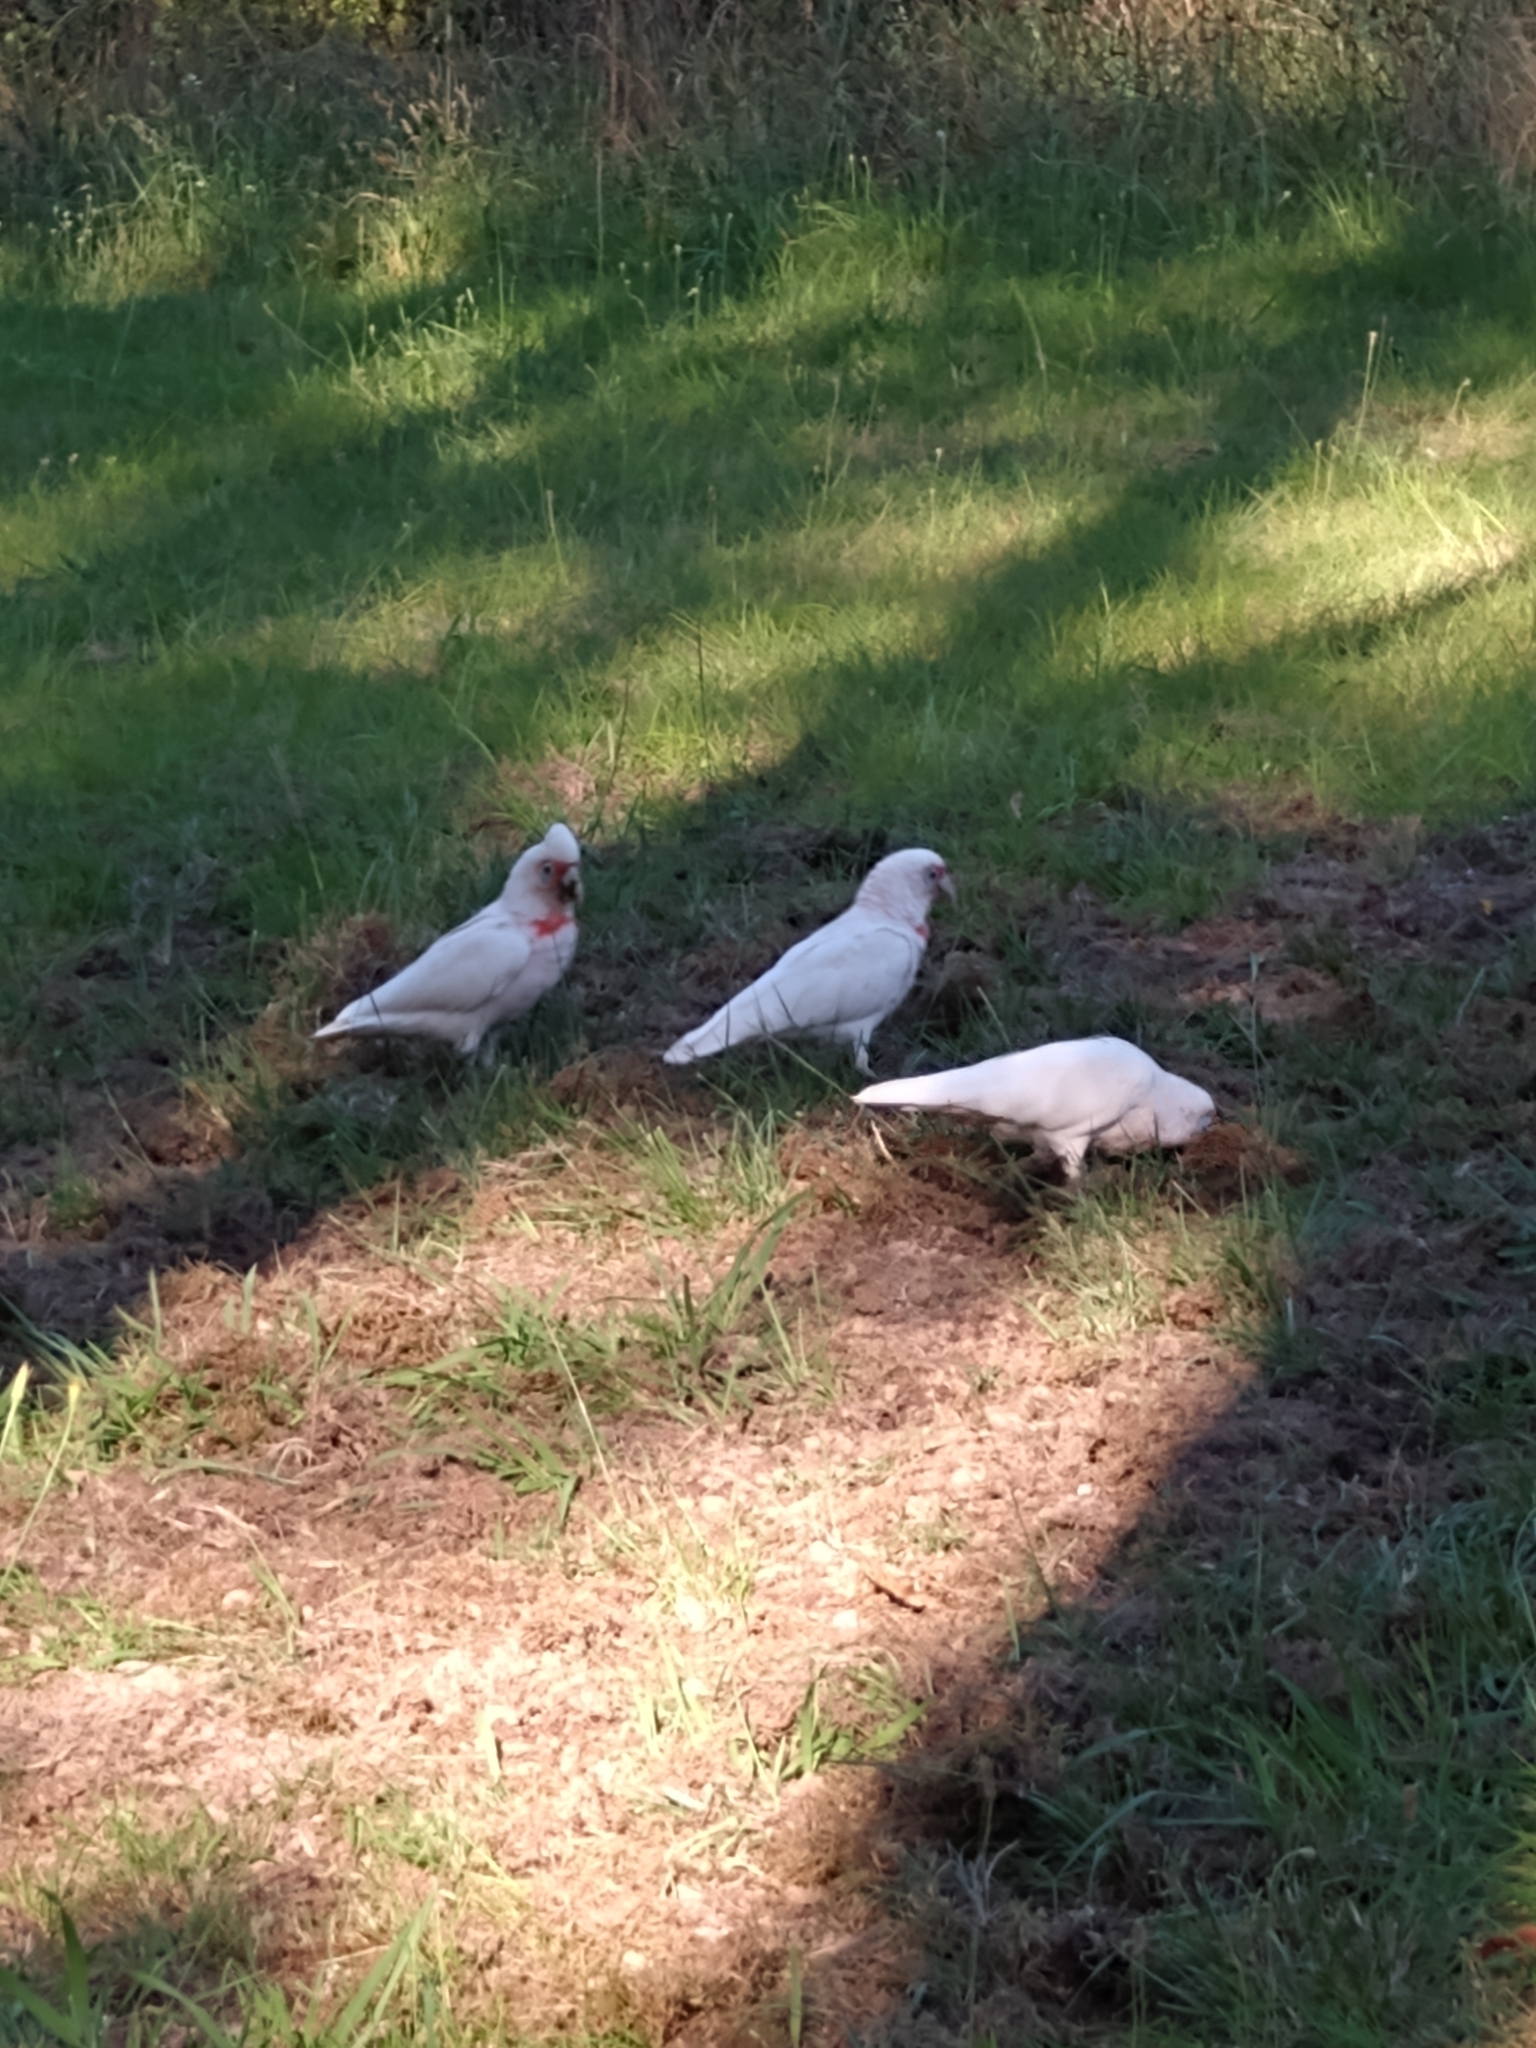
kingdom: Animalia
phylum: Chordata
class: Aves
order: Psittaciformes
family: Psittacidae
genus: Cacatua
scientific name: Cacatua tenuirostris
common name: Long-billed corella
